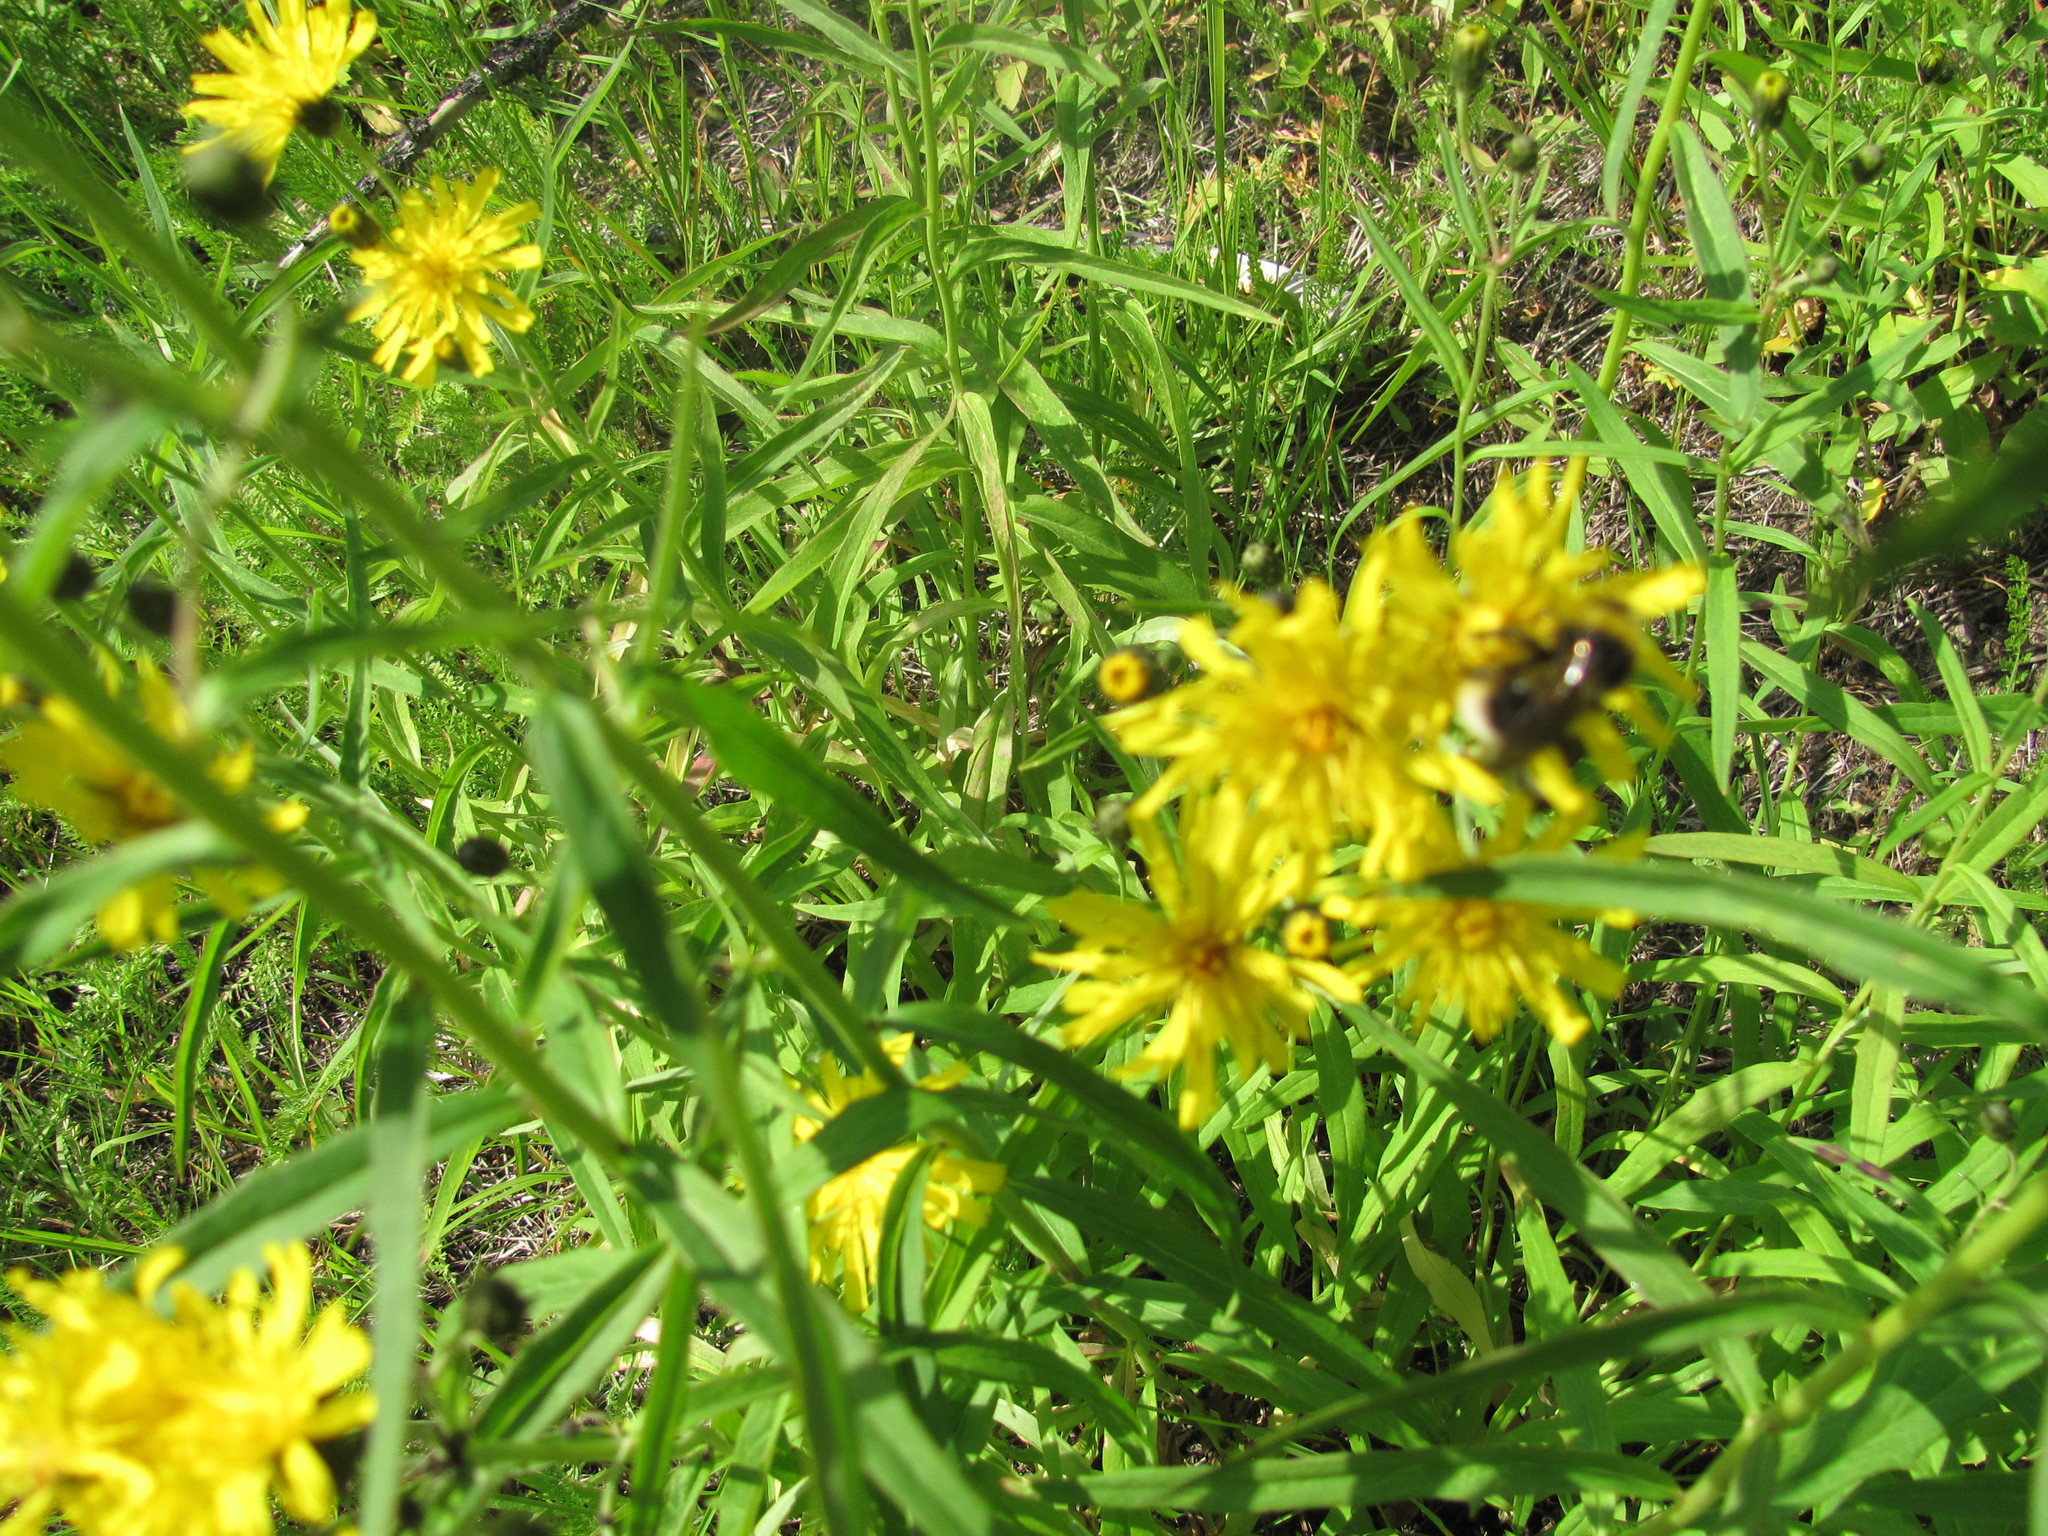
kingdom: Plantae
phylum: Tracheophyta
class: Magnoliopsida
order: Asterales
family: Asteraceae
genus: Hieracium
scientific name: Hieracium umbellatum
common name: Northern hawkweed
